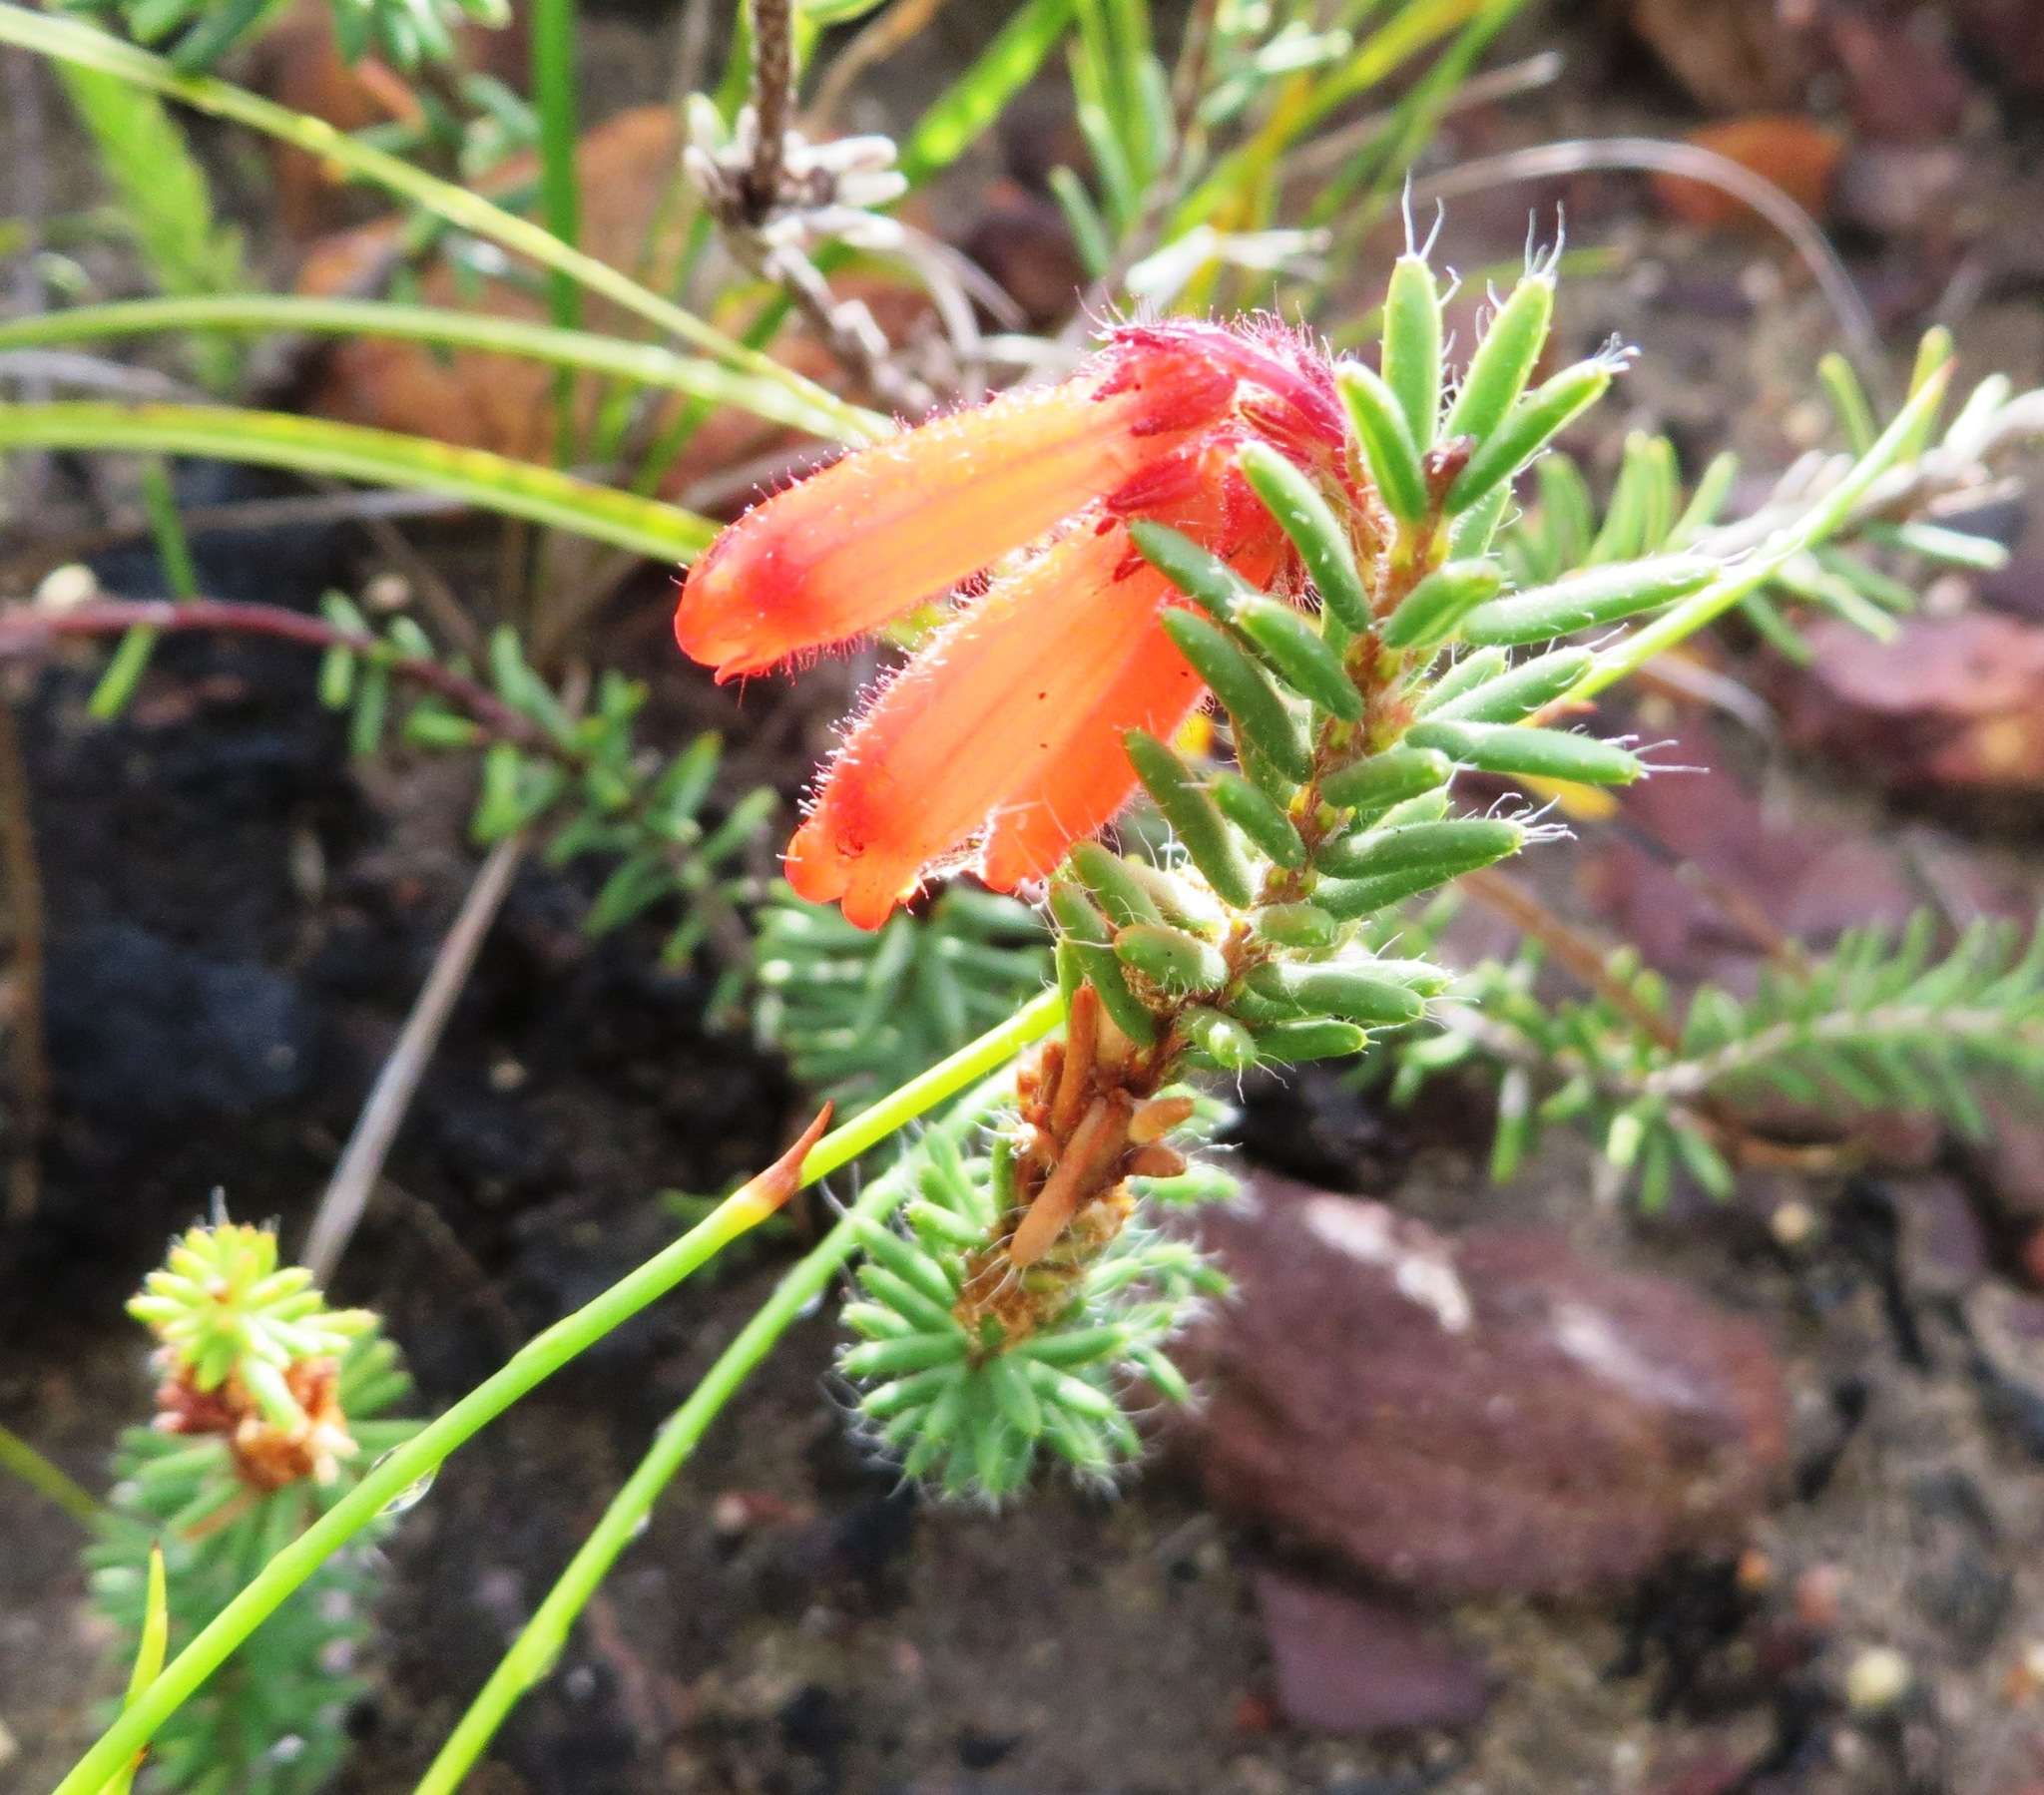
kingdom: Plantae
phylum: Tracheophyta
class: Magnoliopsida
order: Ericales
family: Ericaceae
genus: Erica
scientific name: Erica cerinthoides
